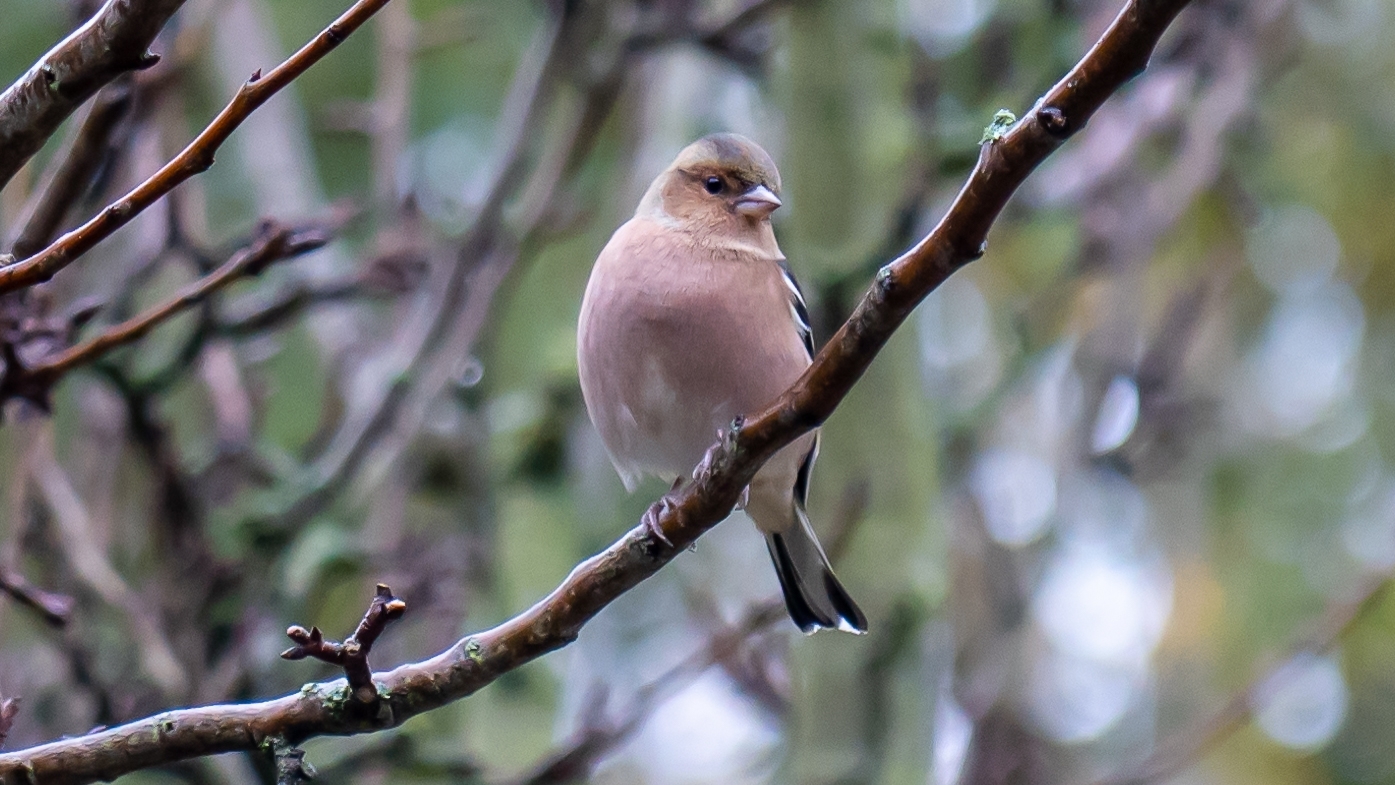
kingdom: Animalia
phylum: Chordata
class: Aves
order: Passeriformes
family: Fringillidae
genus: Fringilla
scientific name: Fringilla coelebs
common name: Common chaffinch
